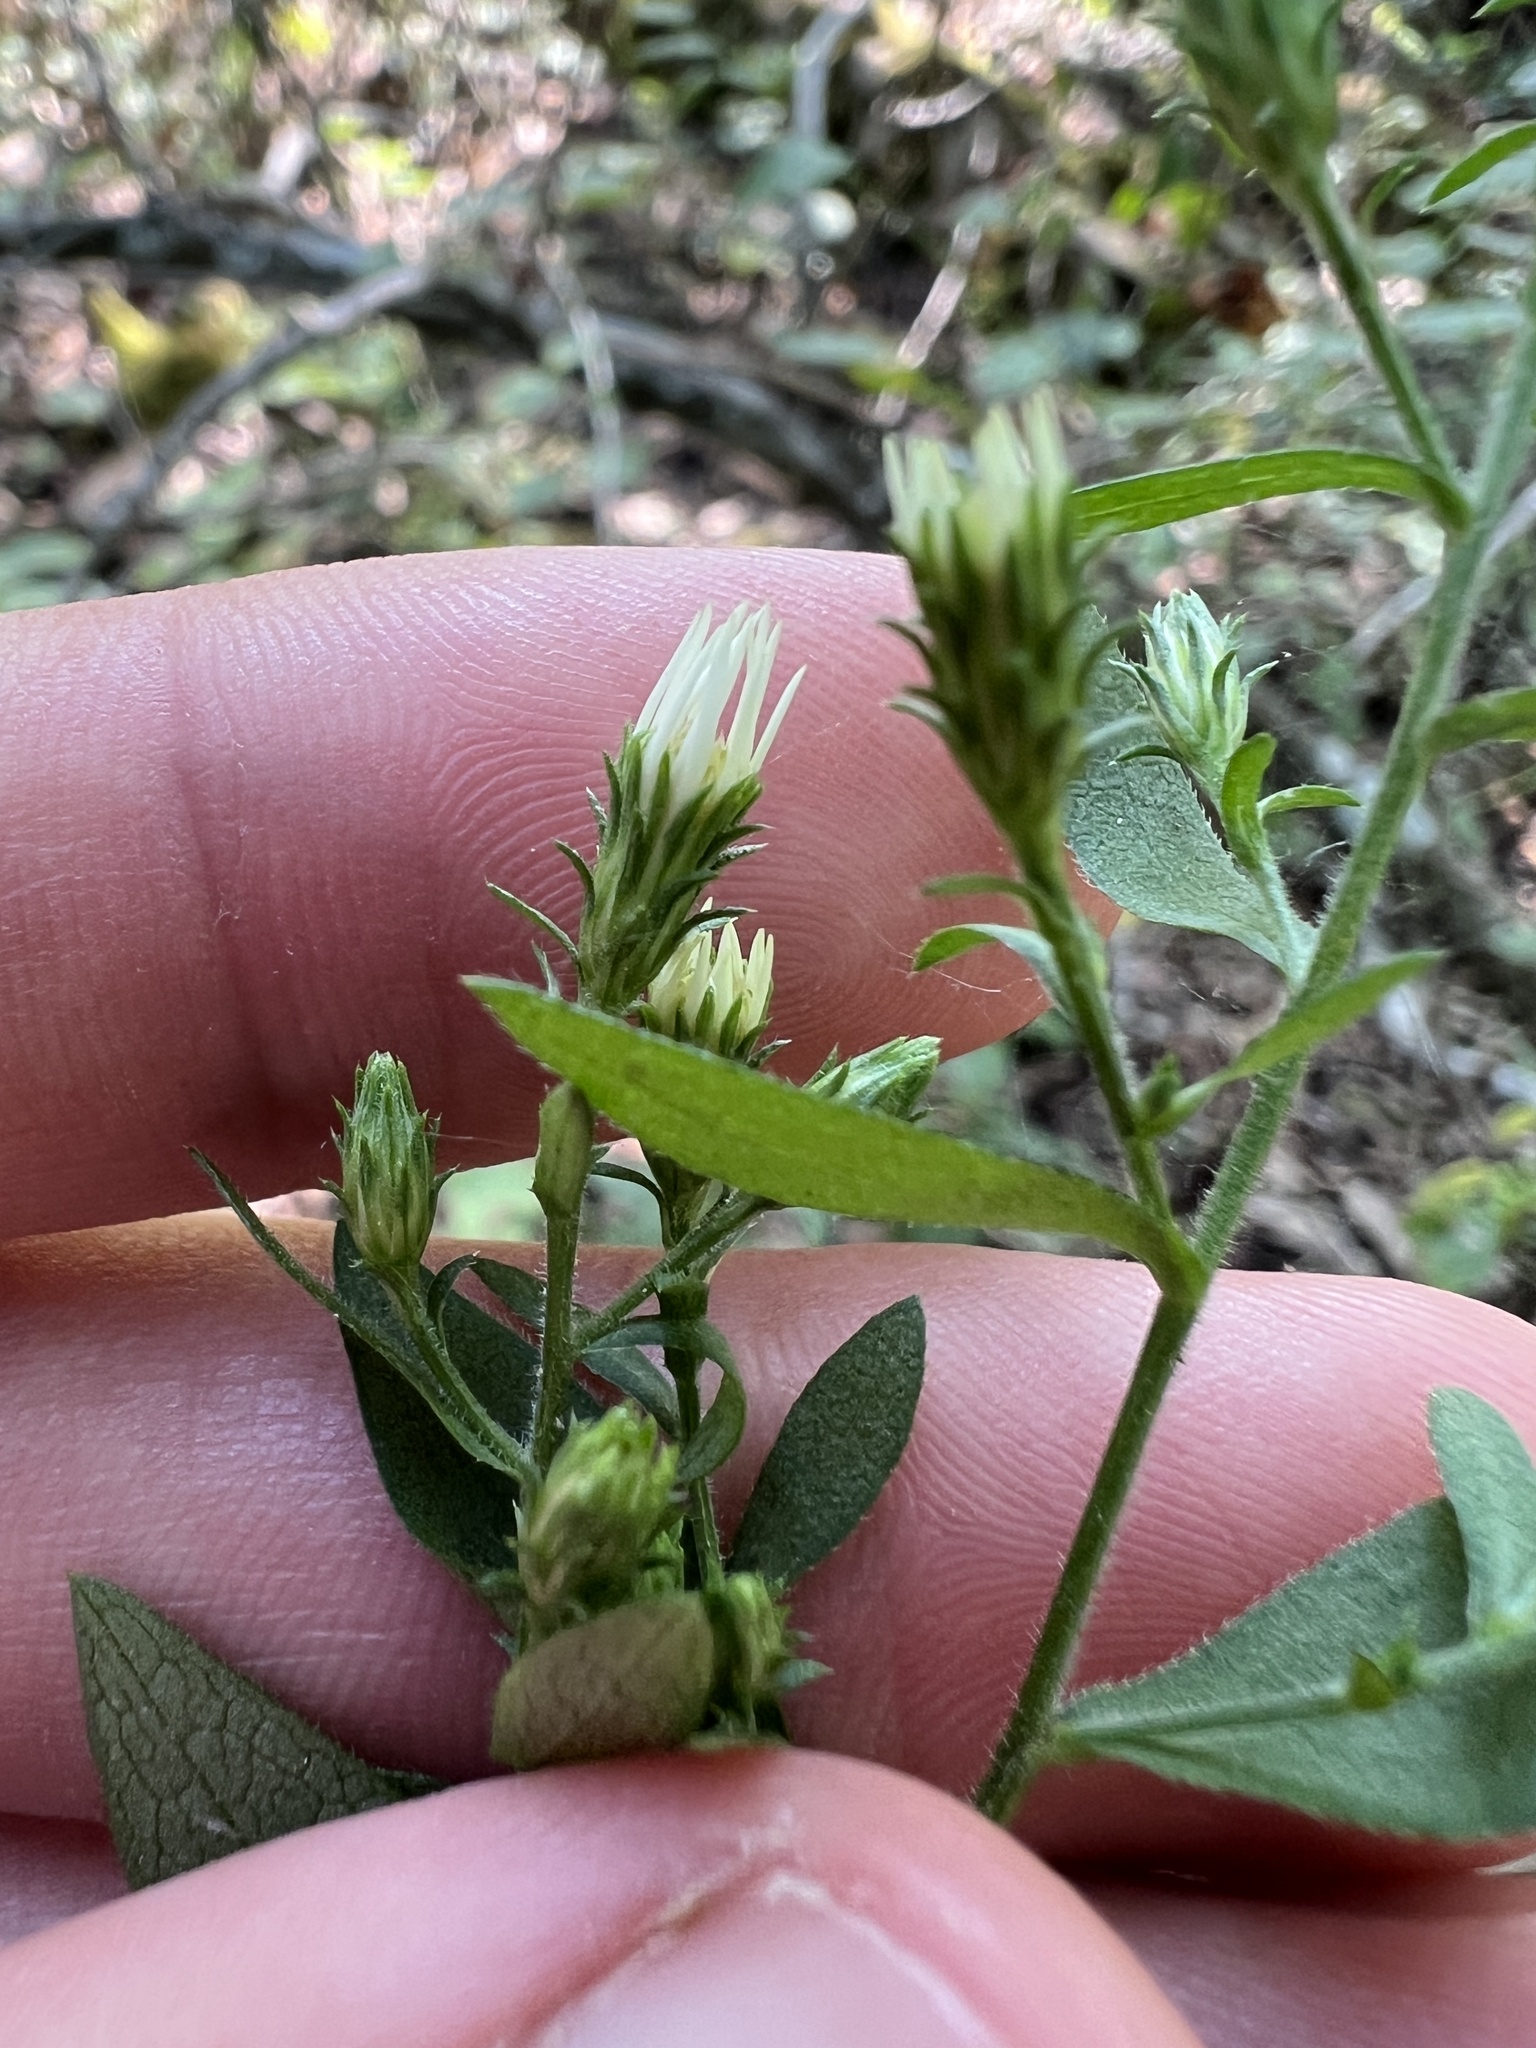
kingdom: Plantae
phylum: Tracheophyta
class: Magnoliopsida
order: Asterales
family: Asteraceae
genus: Symphyotrichum
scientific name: Symphyotrichum drummondii
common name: Drummond's aster
